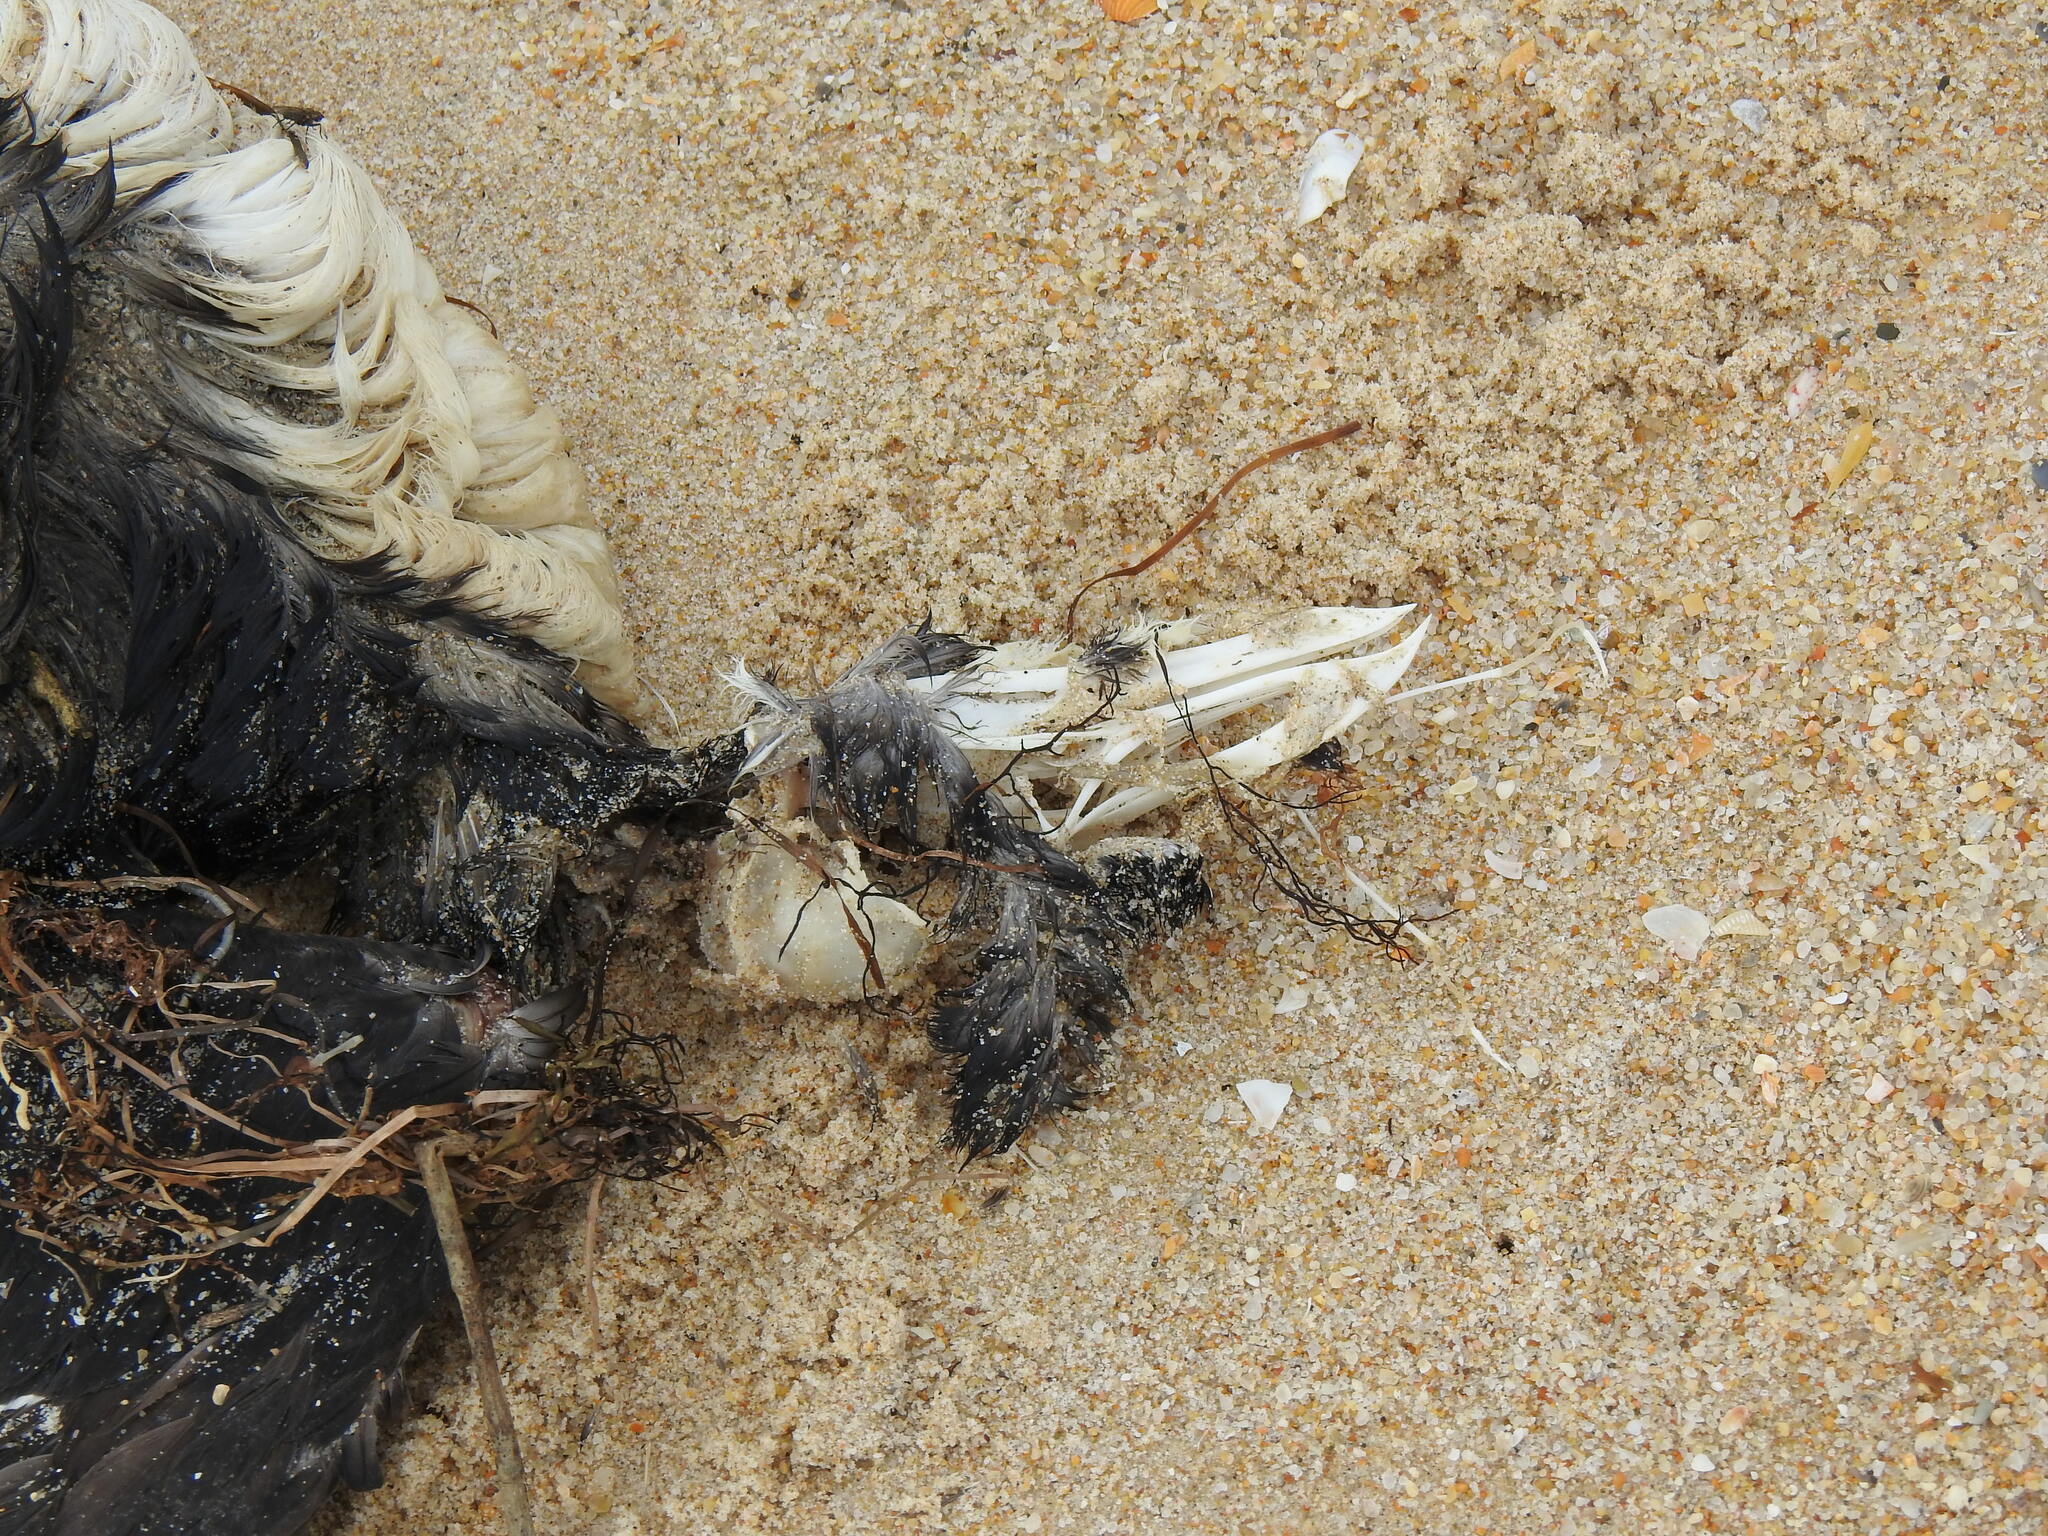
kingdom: Animalia
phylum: Chordata
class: Aves
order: Charadriiformes
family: Alcidae
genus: Alca
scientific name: Alca torda
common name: Razorbill
